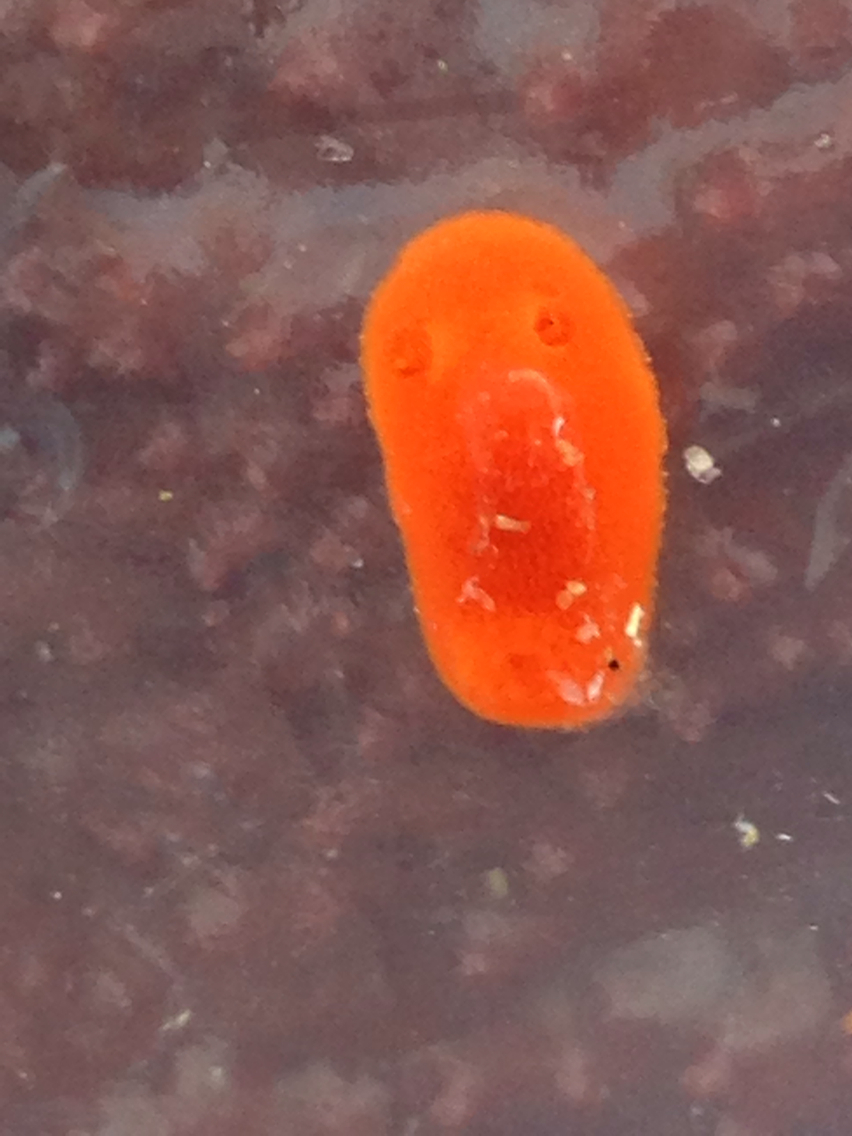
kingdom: Animalia
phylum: Mollusca
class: Gastropoda
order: Nudibranchia
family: Discodorididae
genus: Rostanga
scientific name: Rostanga pulchra
